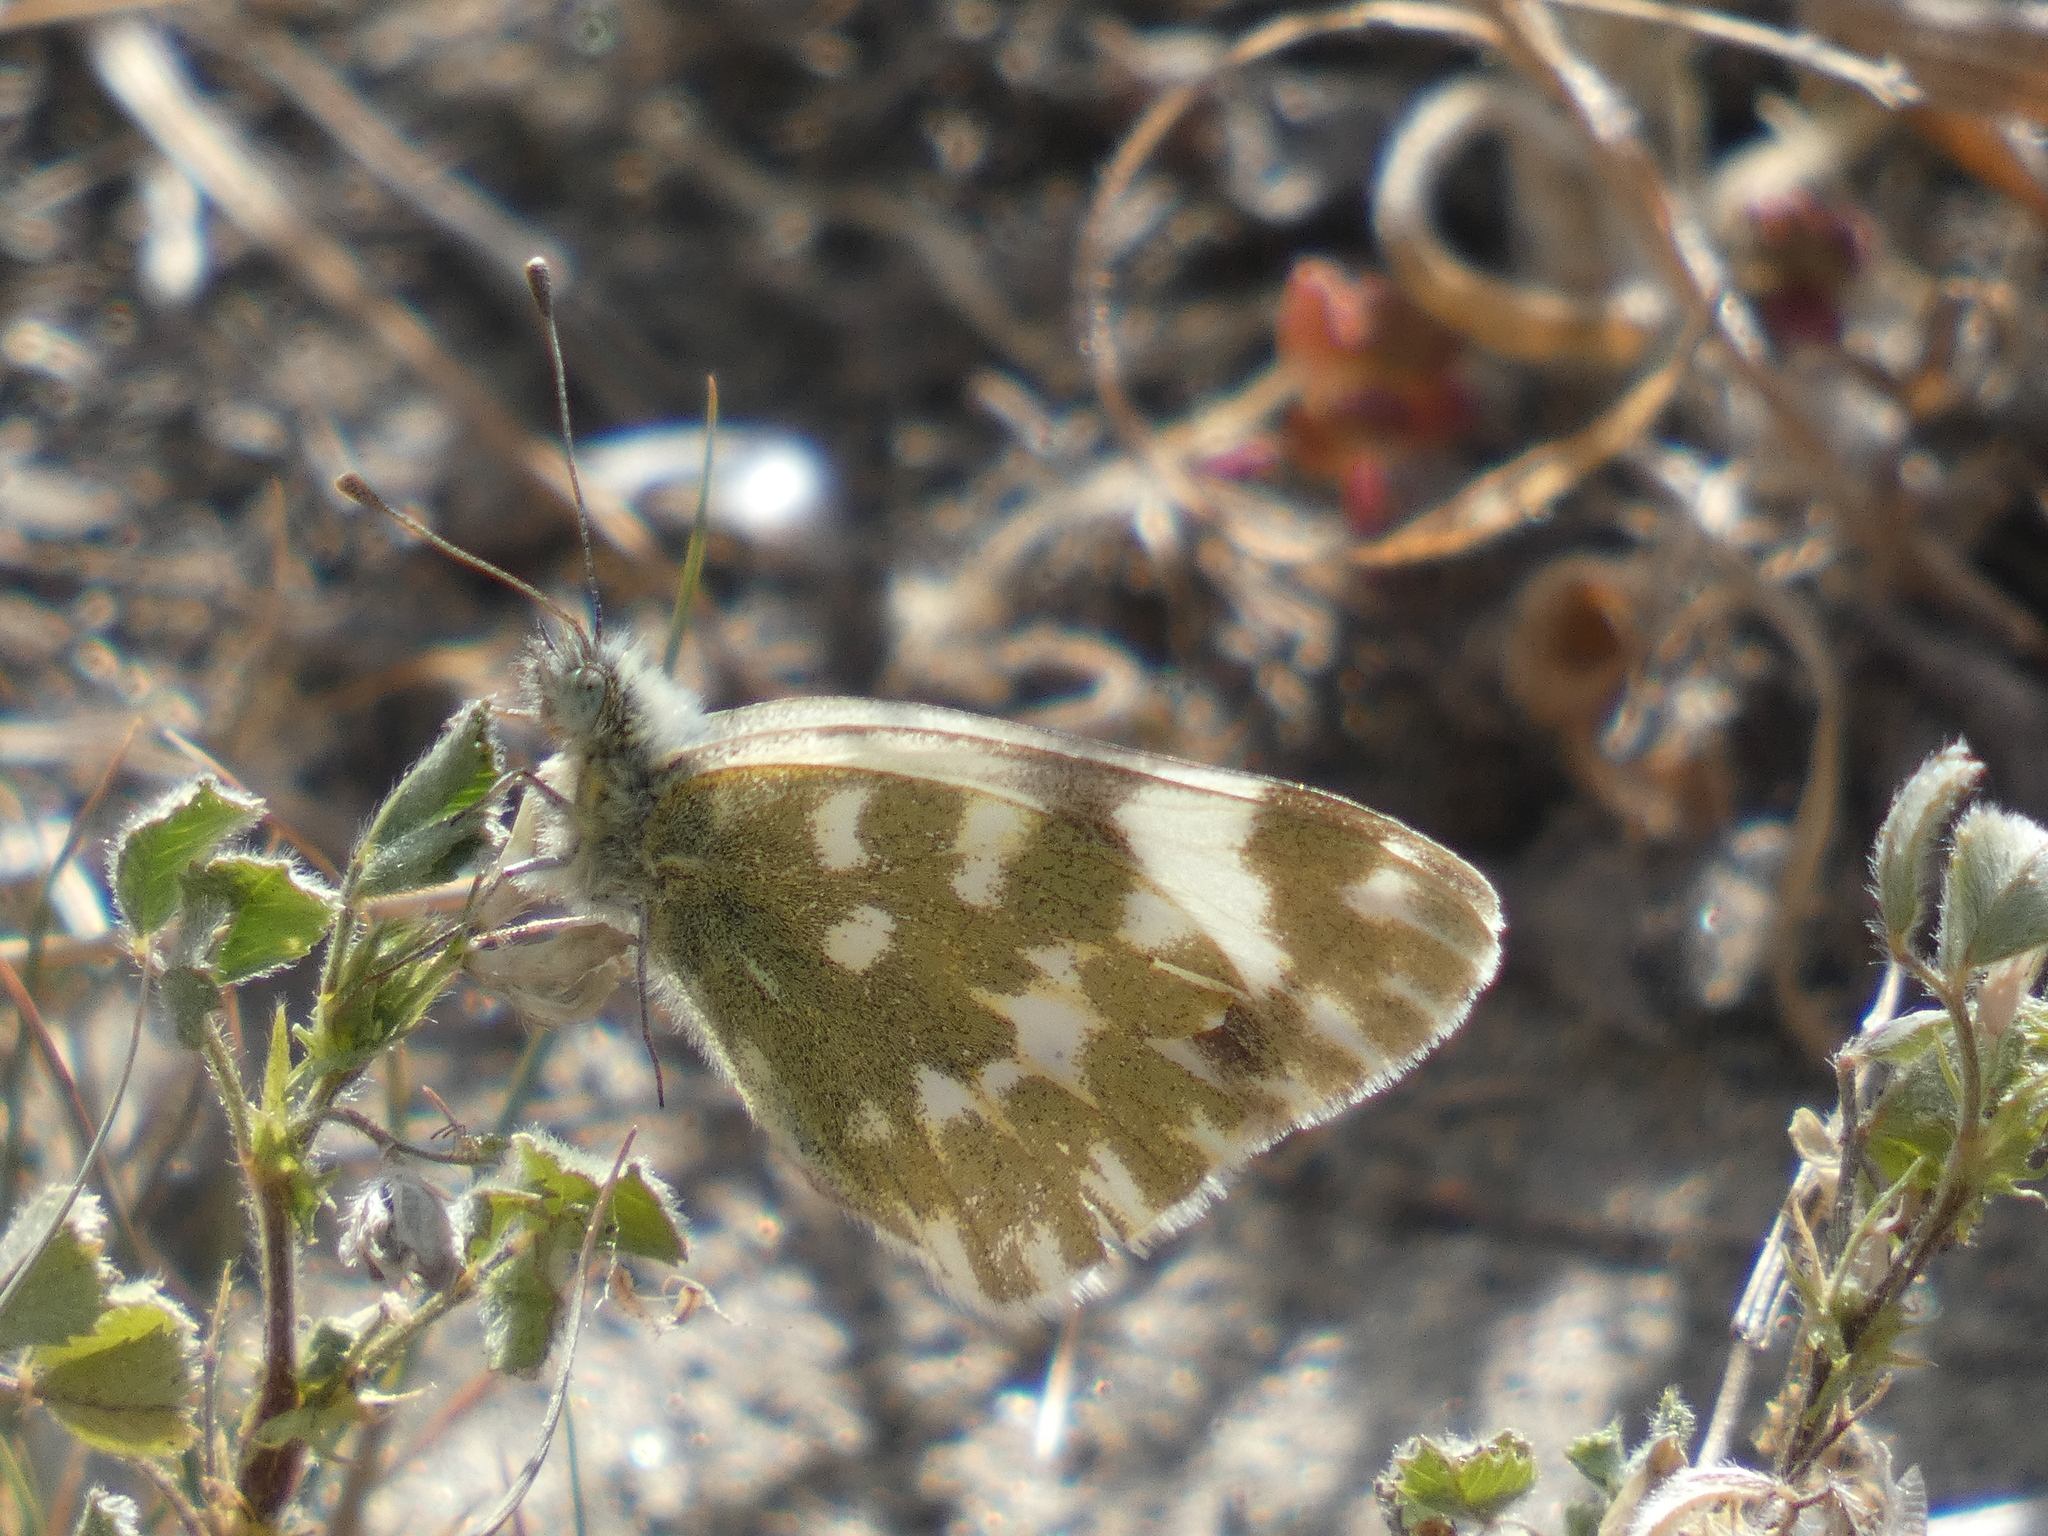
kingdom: Animalia
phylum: Arthropoda
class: Insecta
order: Lepidoptera
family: Pieridae
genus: Pontia
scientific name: Pontia daplidice
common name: Bath white
